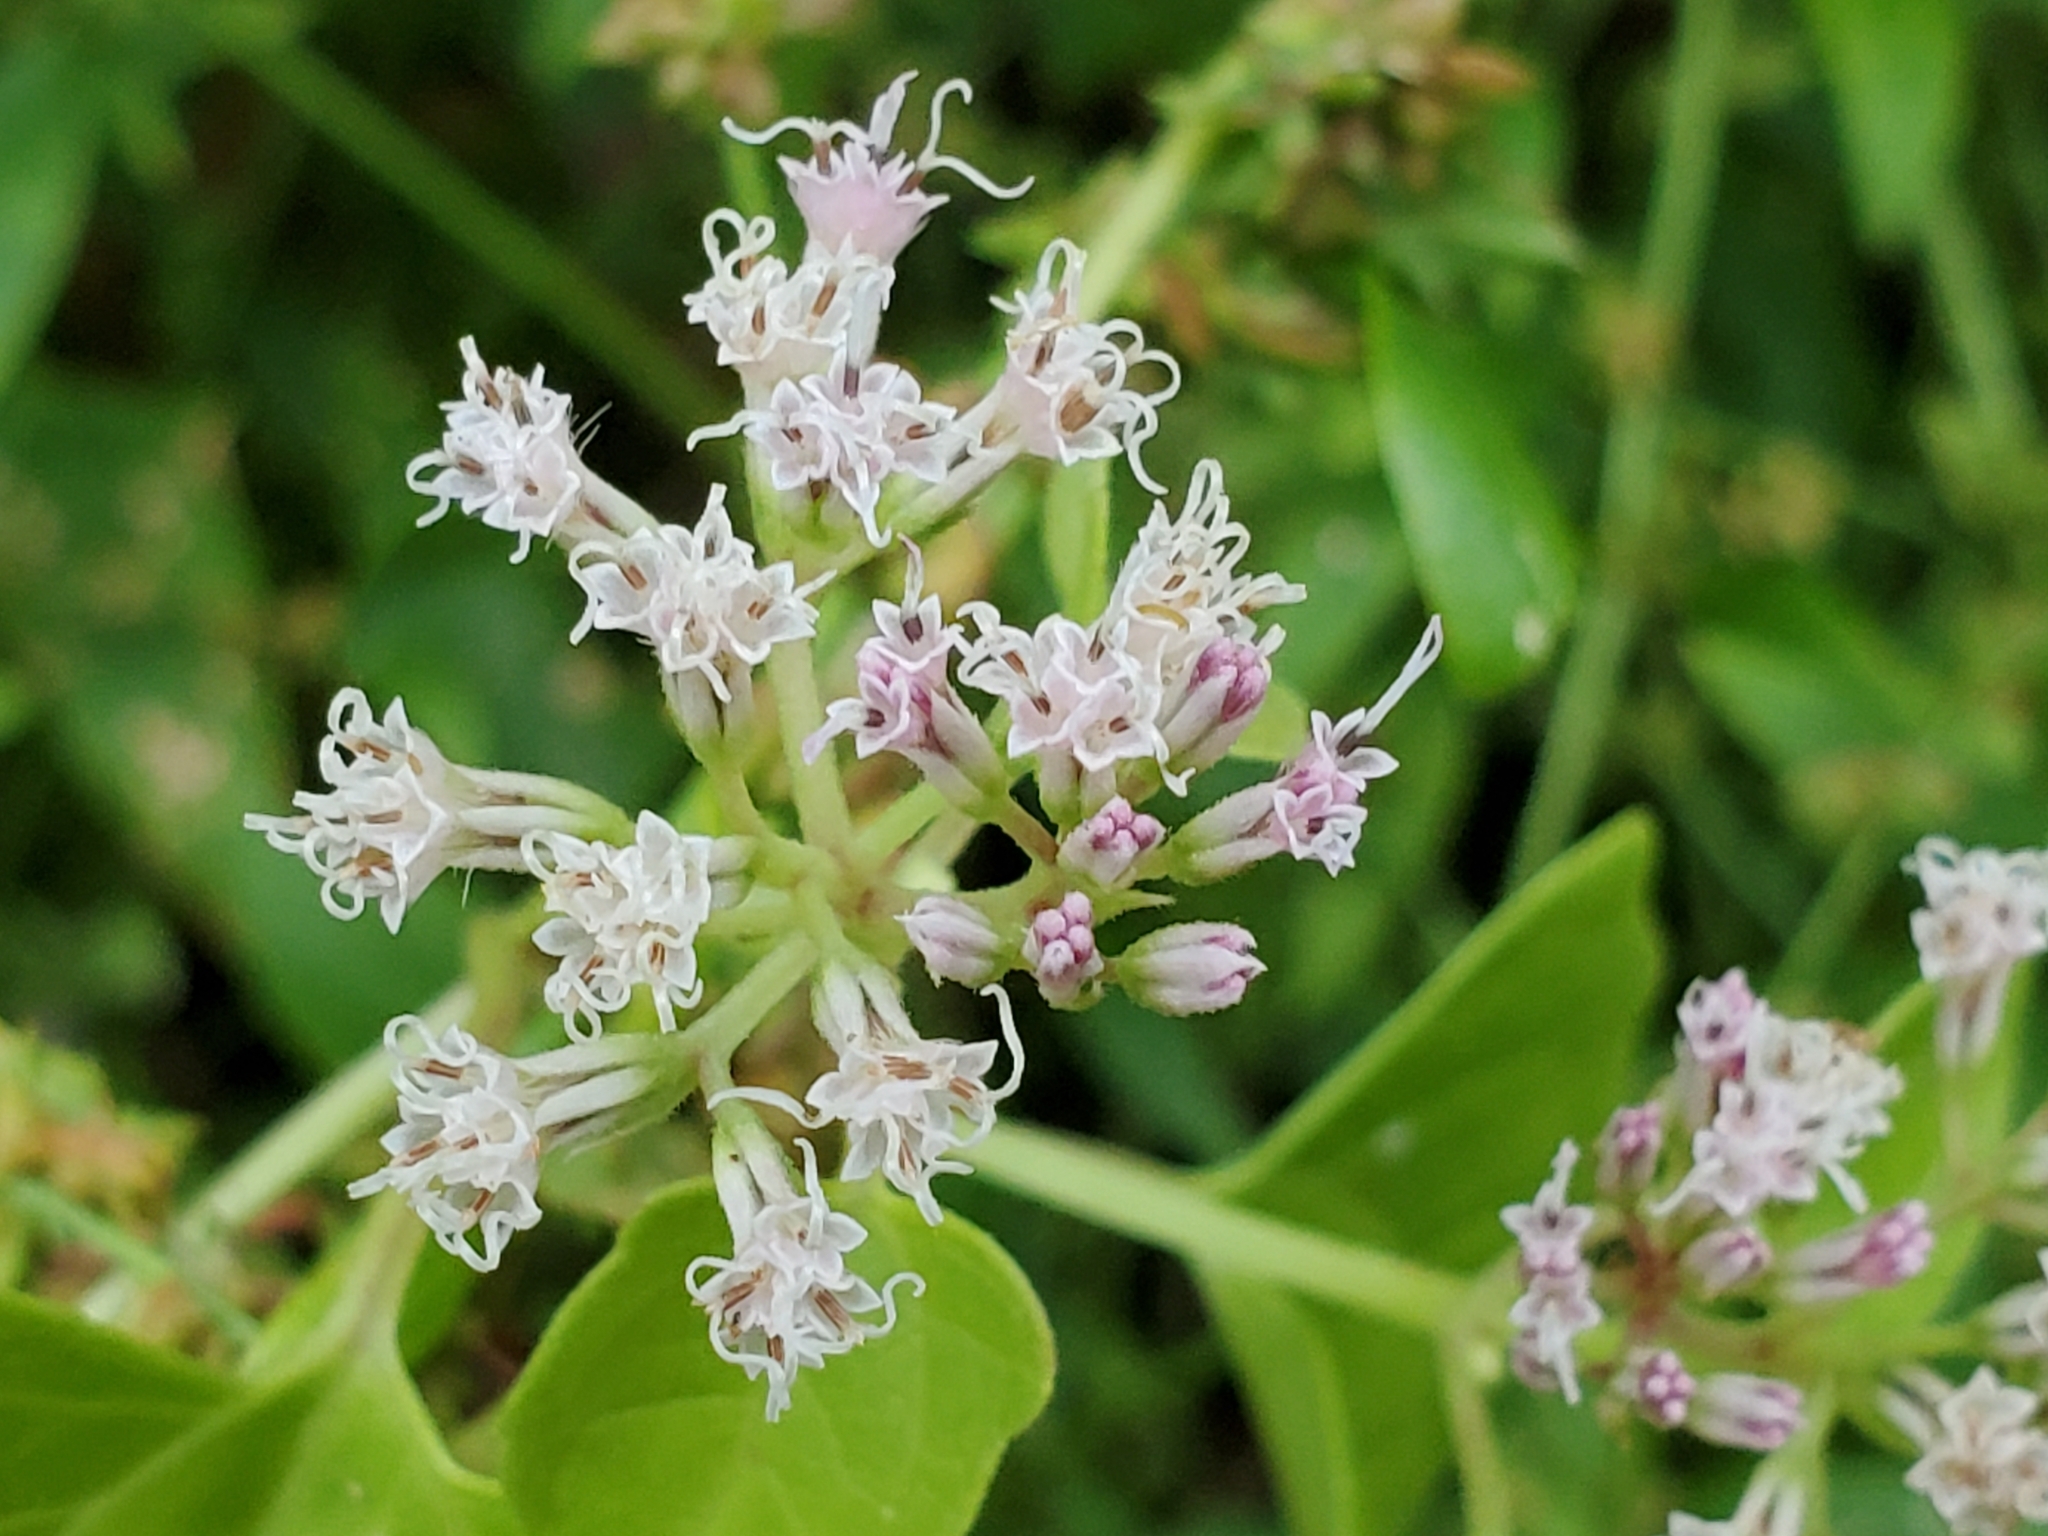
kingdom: Plantae
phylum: Tracheophyta
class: Magnoliopsida
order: Asterales
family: Asteraceae
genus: Mikania
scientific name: Mikania scandens
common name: Climbing hempvine
